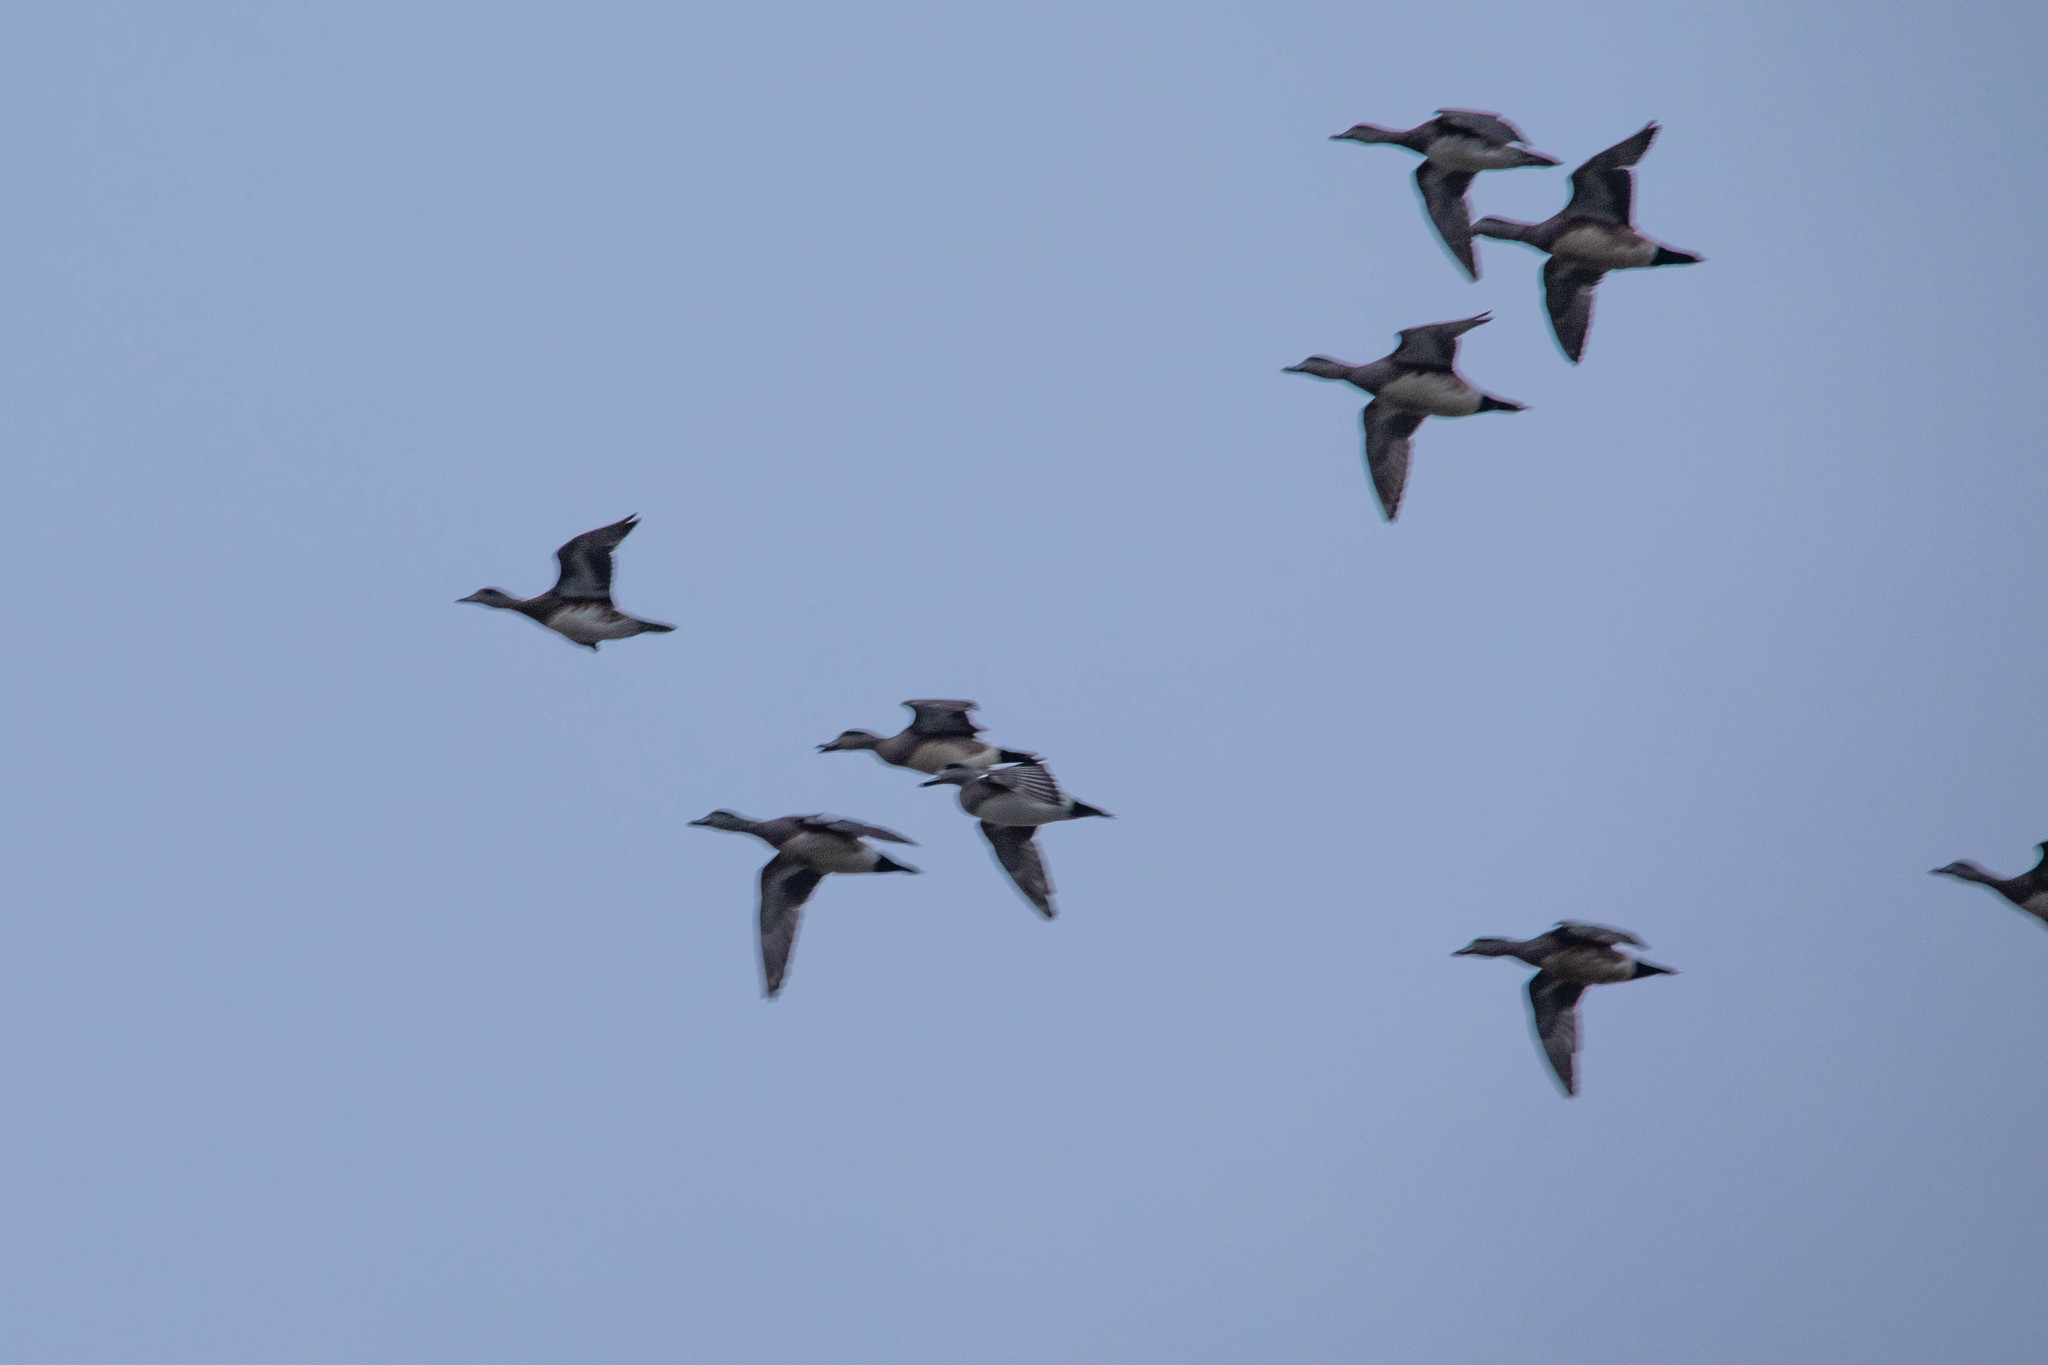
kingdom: Animalia
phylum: Chordata
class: Aves
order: Anseriformes
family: Anatidae
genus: Mareca
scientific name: Mareca americana
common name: American wigeon
